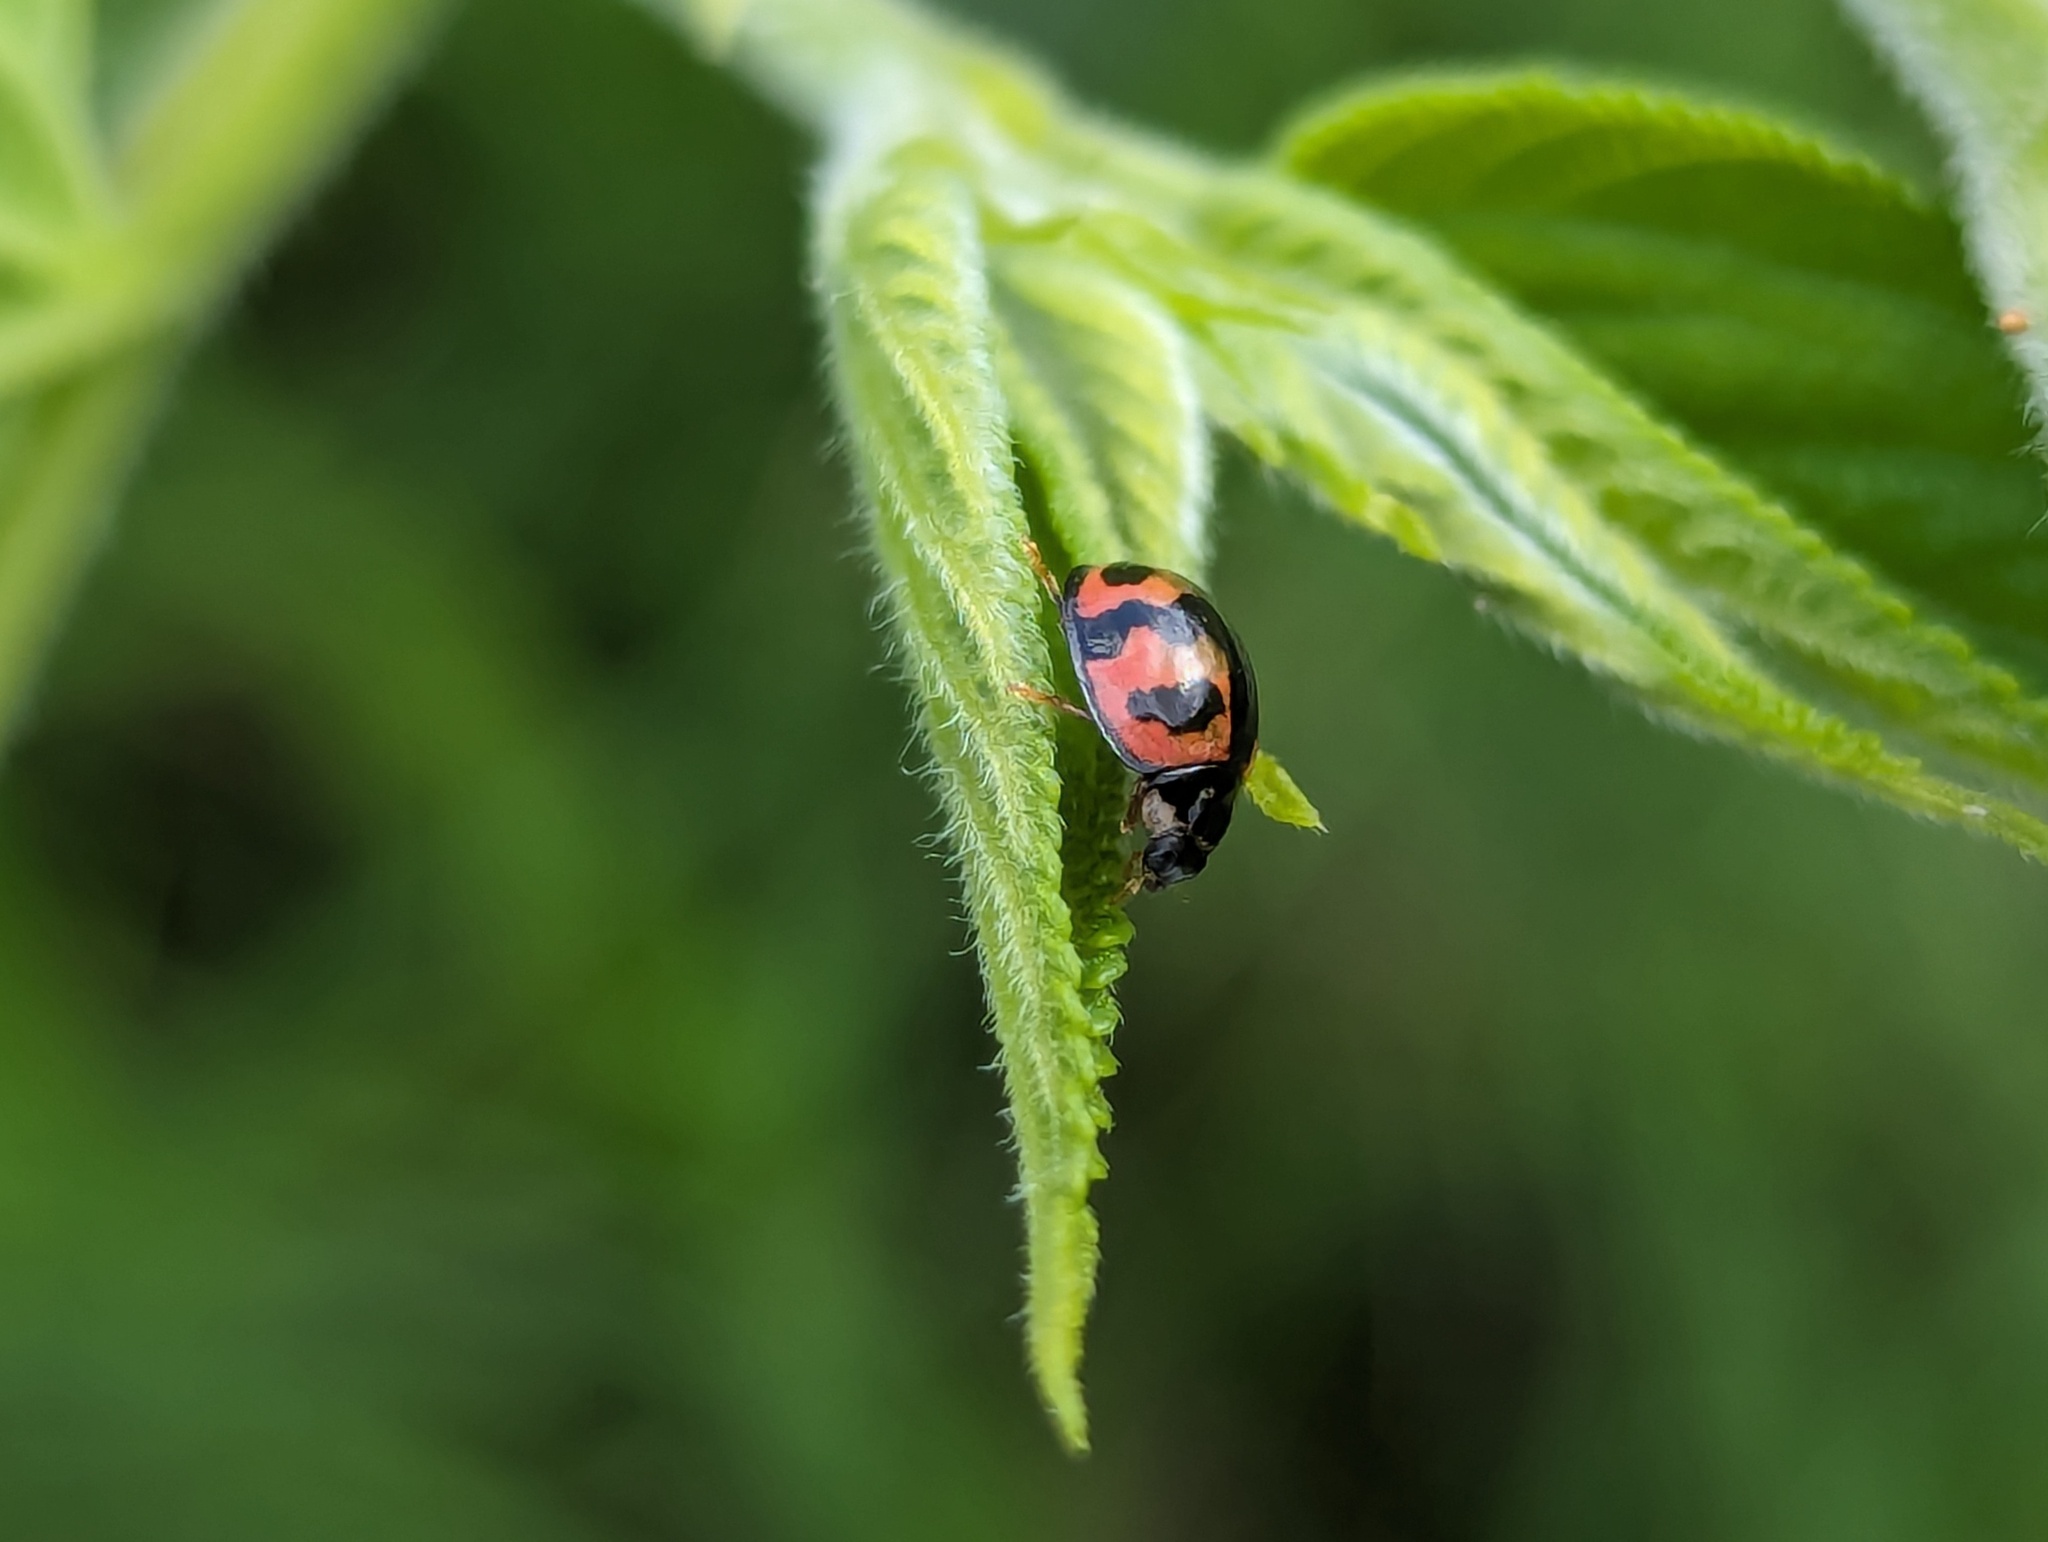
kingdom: Animalia
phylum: Arthropoda
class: Insecta
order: Coleoptera
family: Coccinellidae
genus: Cheilomenes
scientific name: Cheilomenes sexmaculata
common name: Ladybird beetle
